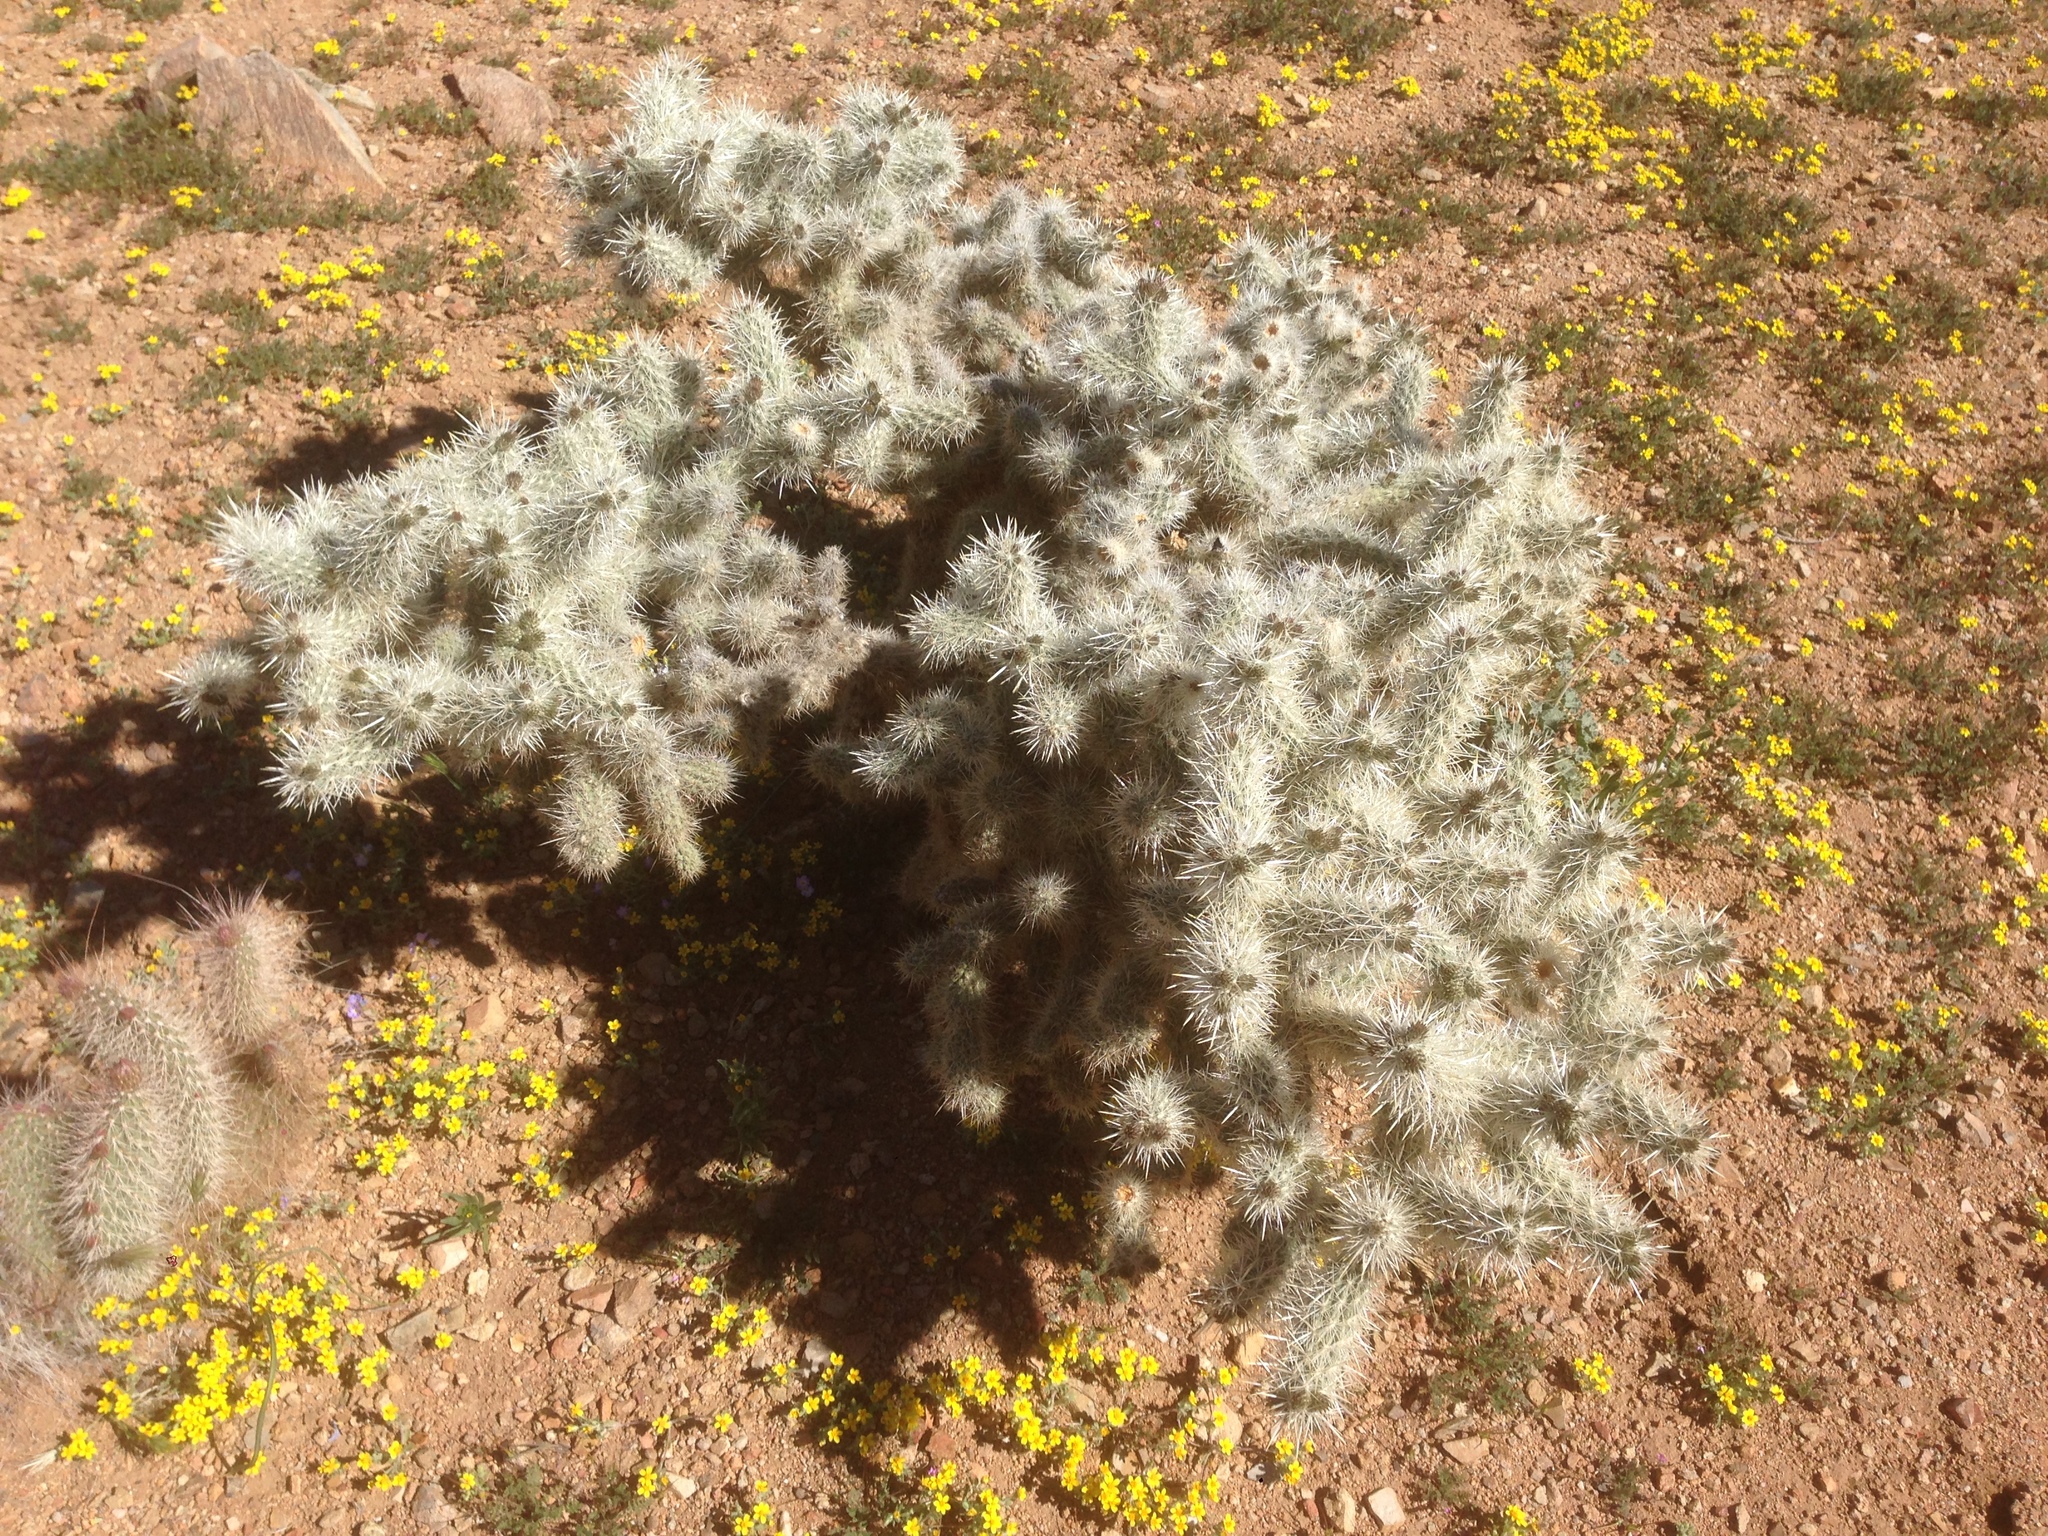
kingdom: Plantae
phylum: Tracheophyta
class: Magnoliopsida
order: Caryophyllales
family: Cactaceae
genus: Cylindropuntia
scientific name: Cylindropuntia echinocarpa
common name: Ground cholla
